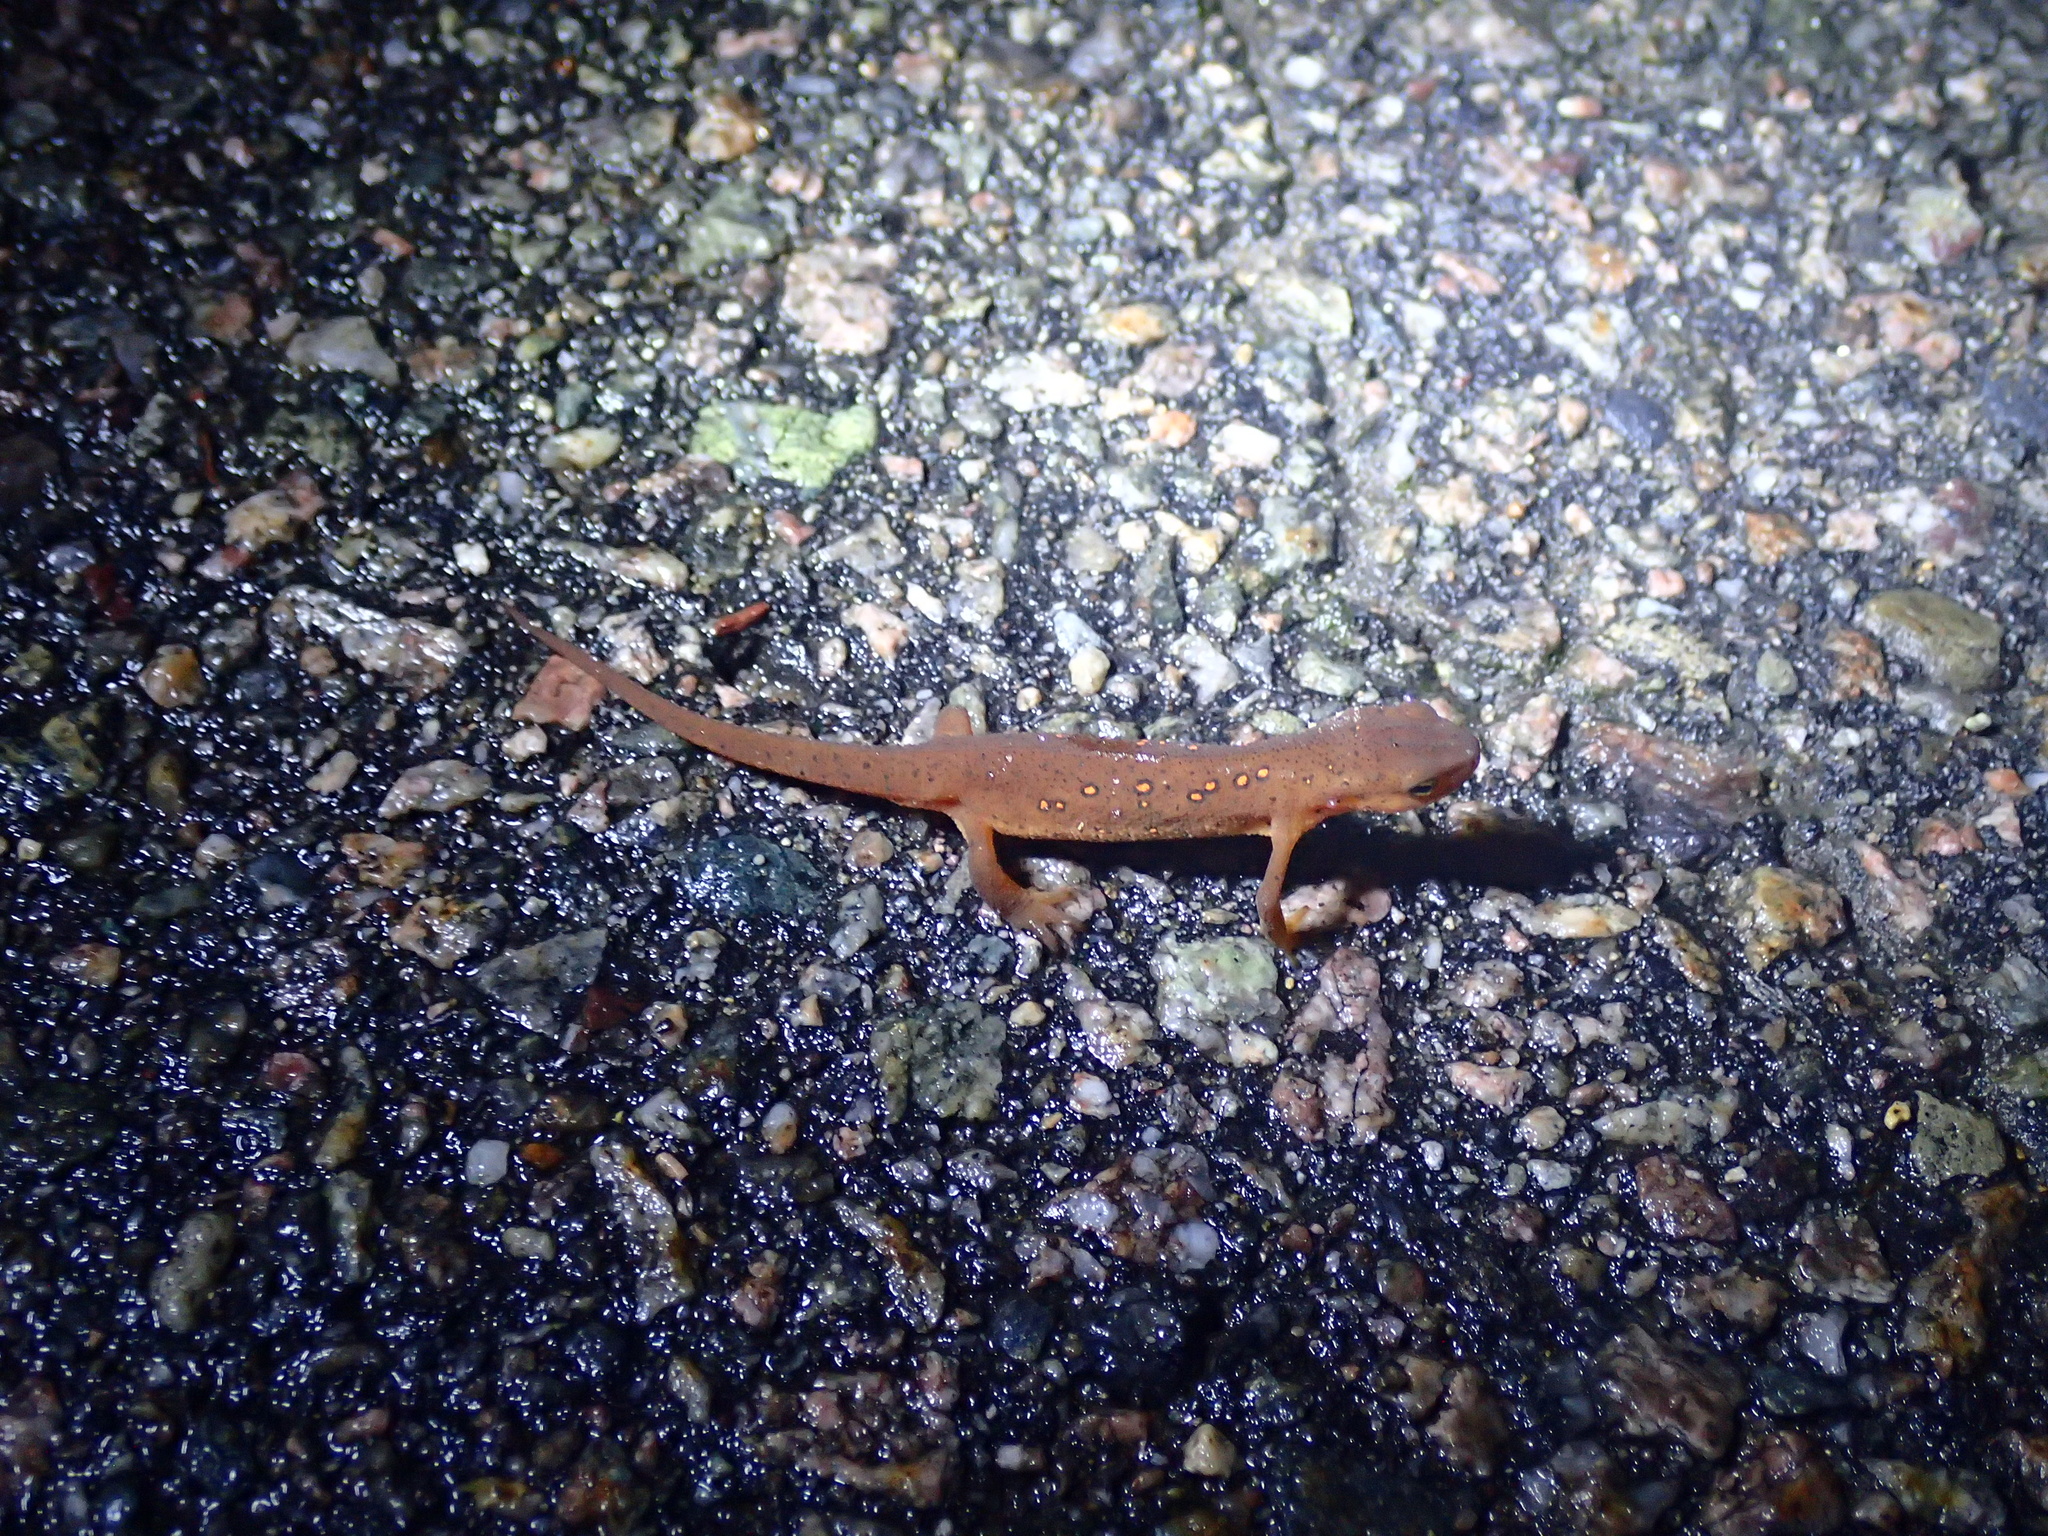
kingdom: Animalia
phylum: Chordata
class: Amphibia
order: Caudata
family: Salamandridae
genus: Notophthalmus
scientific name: Notophthalmus viridescens
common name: Eastern newt
